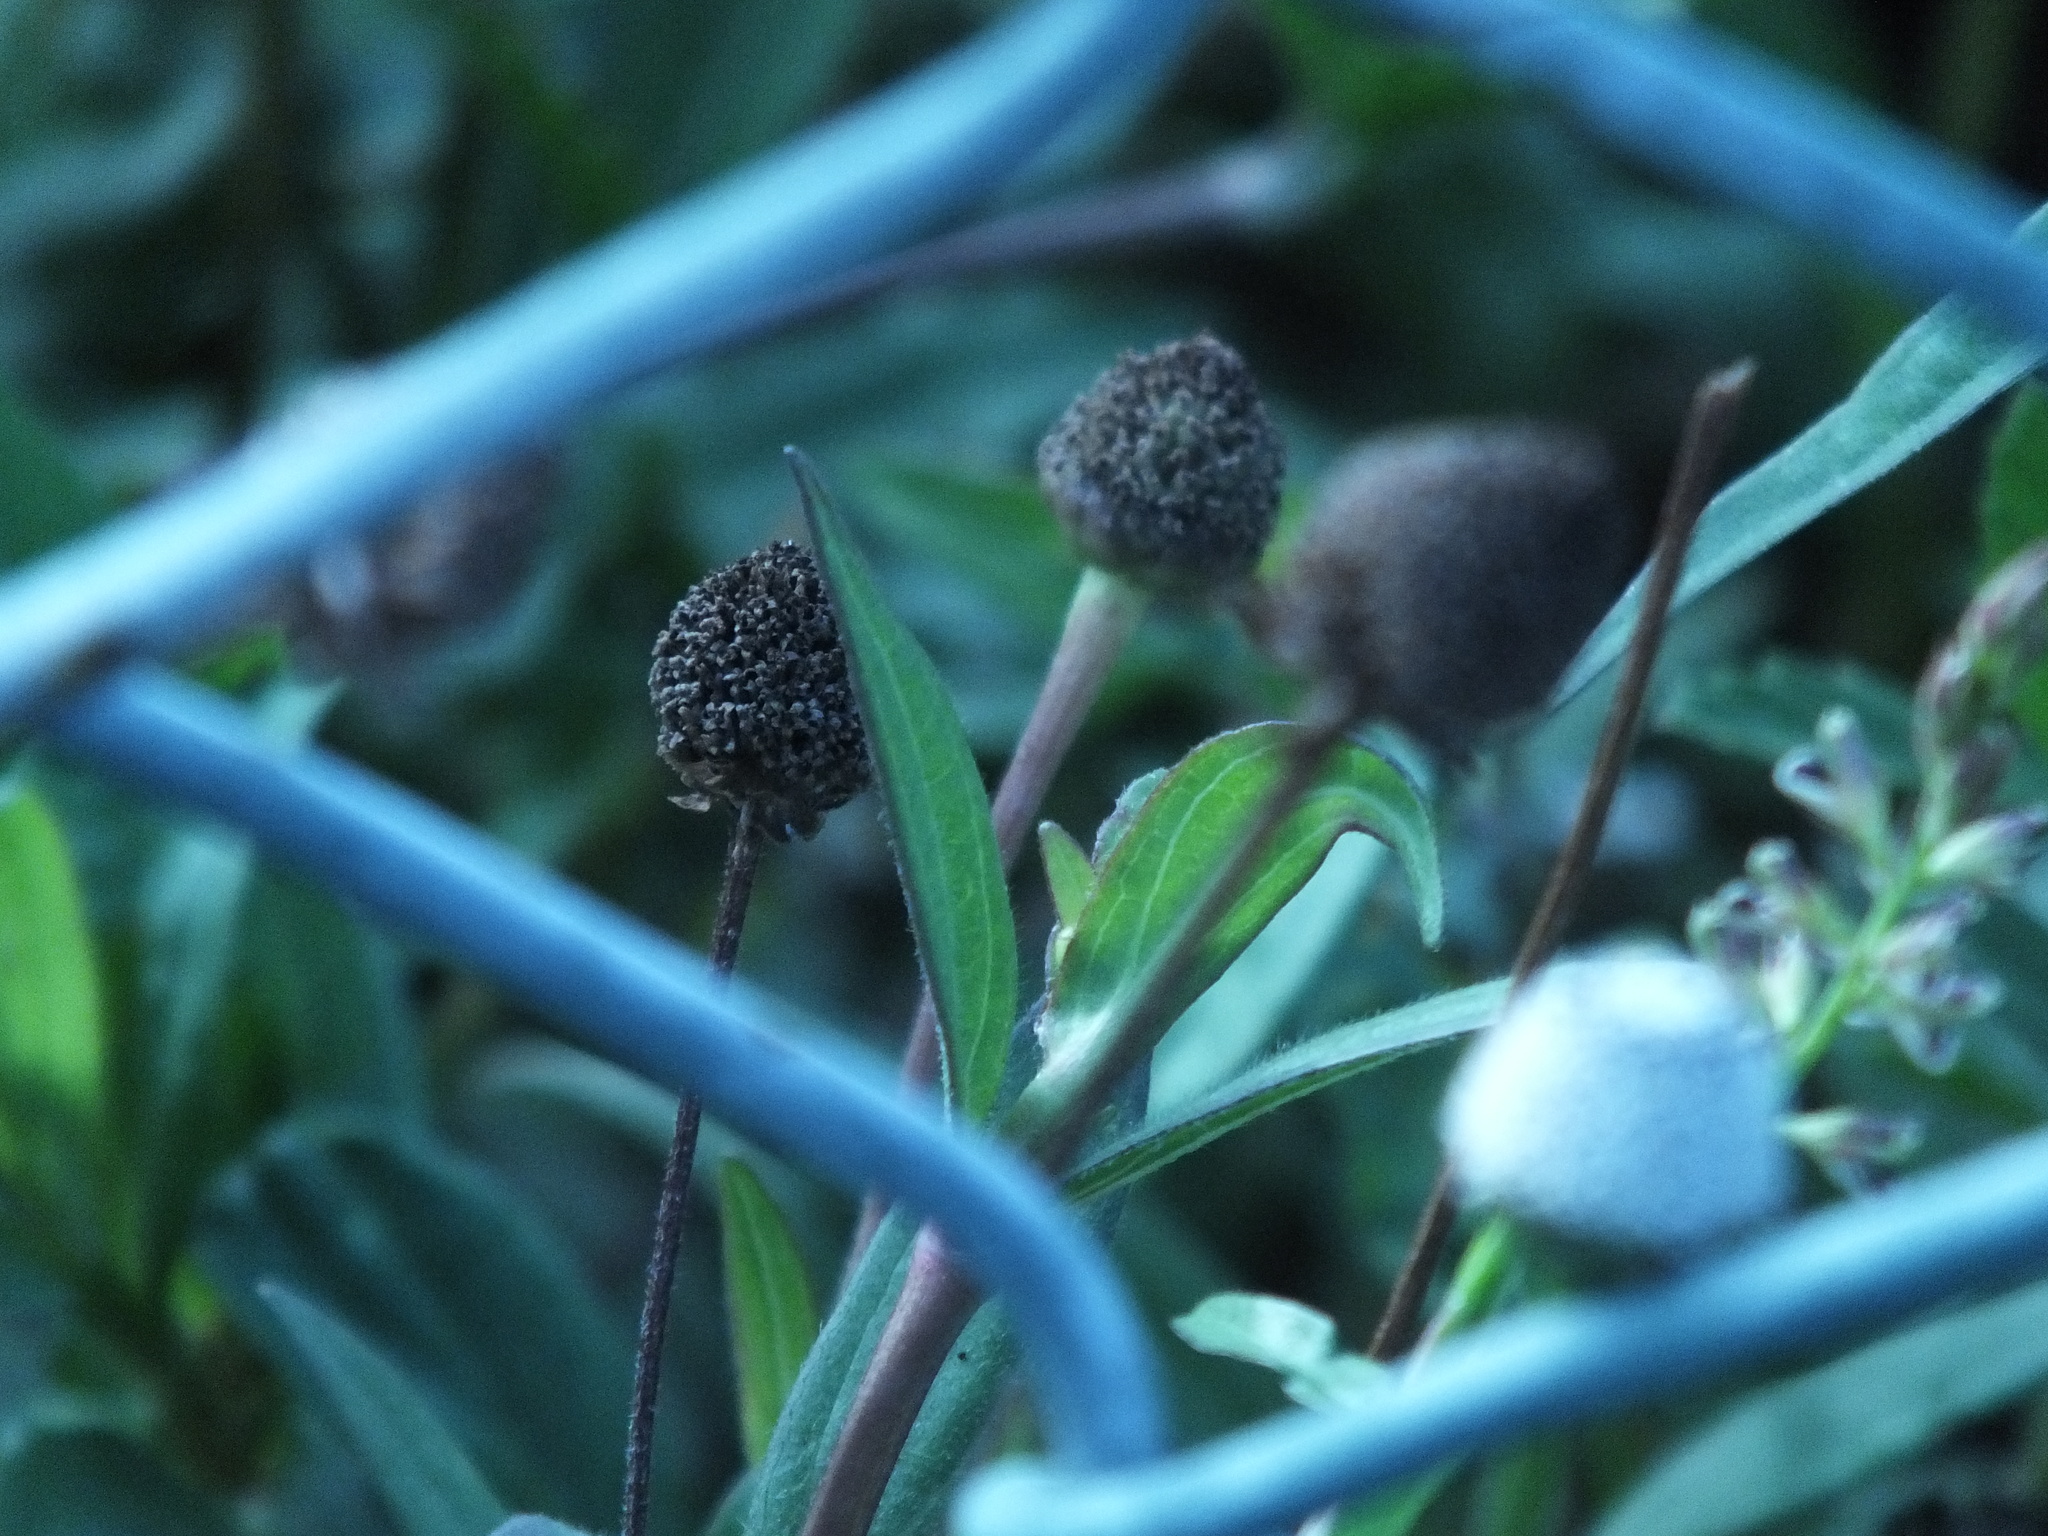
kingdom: Plantae
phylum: Tracheophyta
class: Magnoliopsida
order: Asterales
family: Asteraceae
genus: Spilanthes
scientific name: Spilanthes urens
